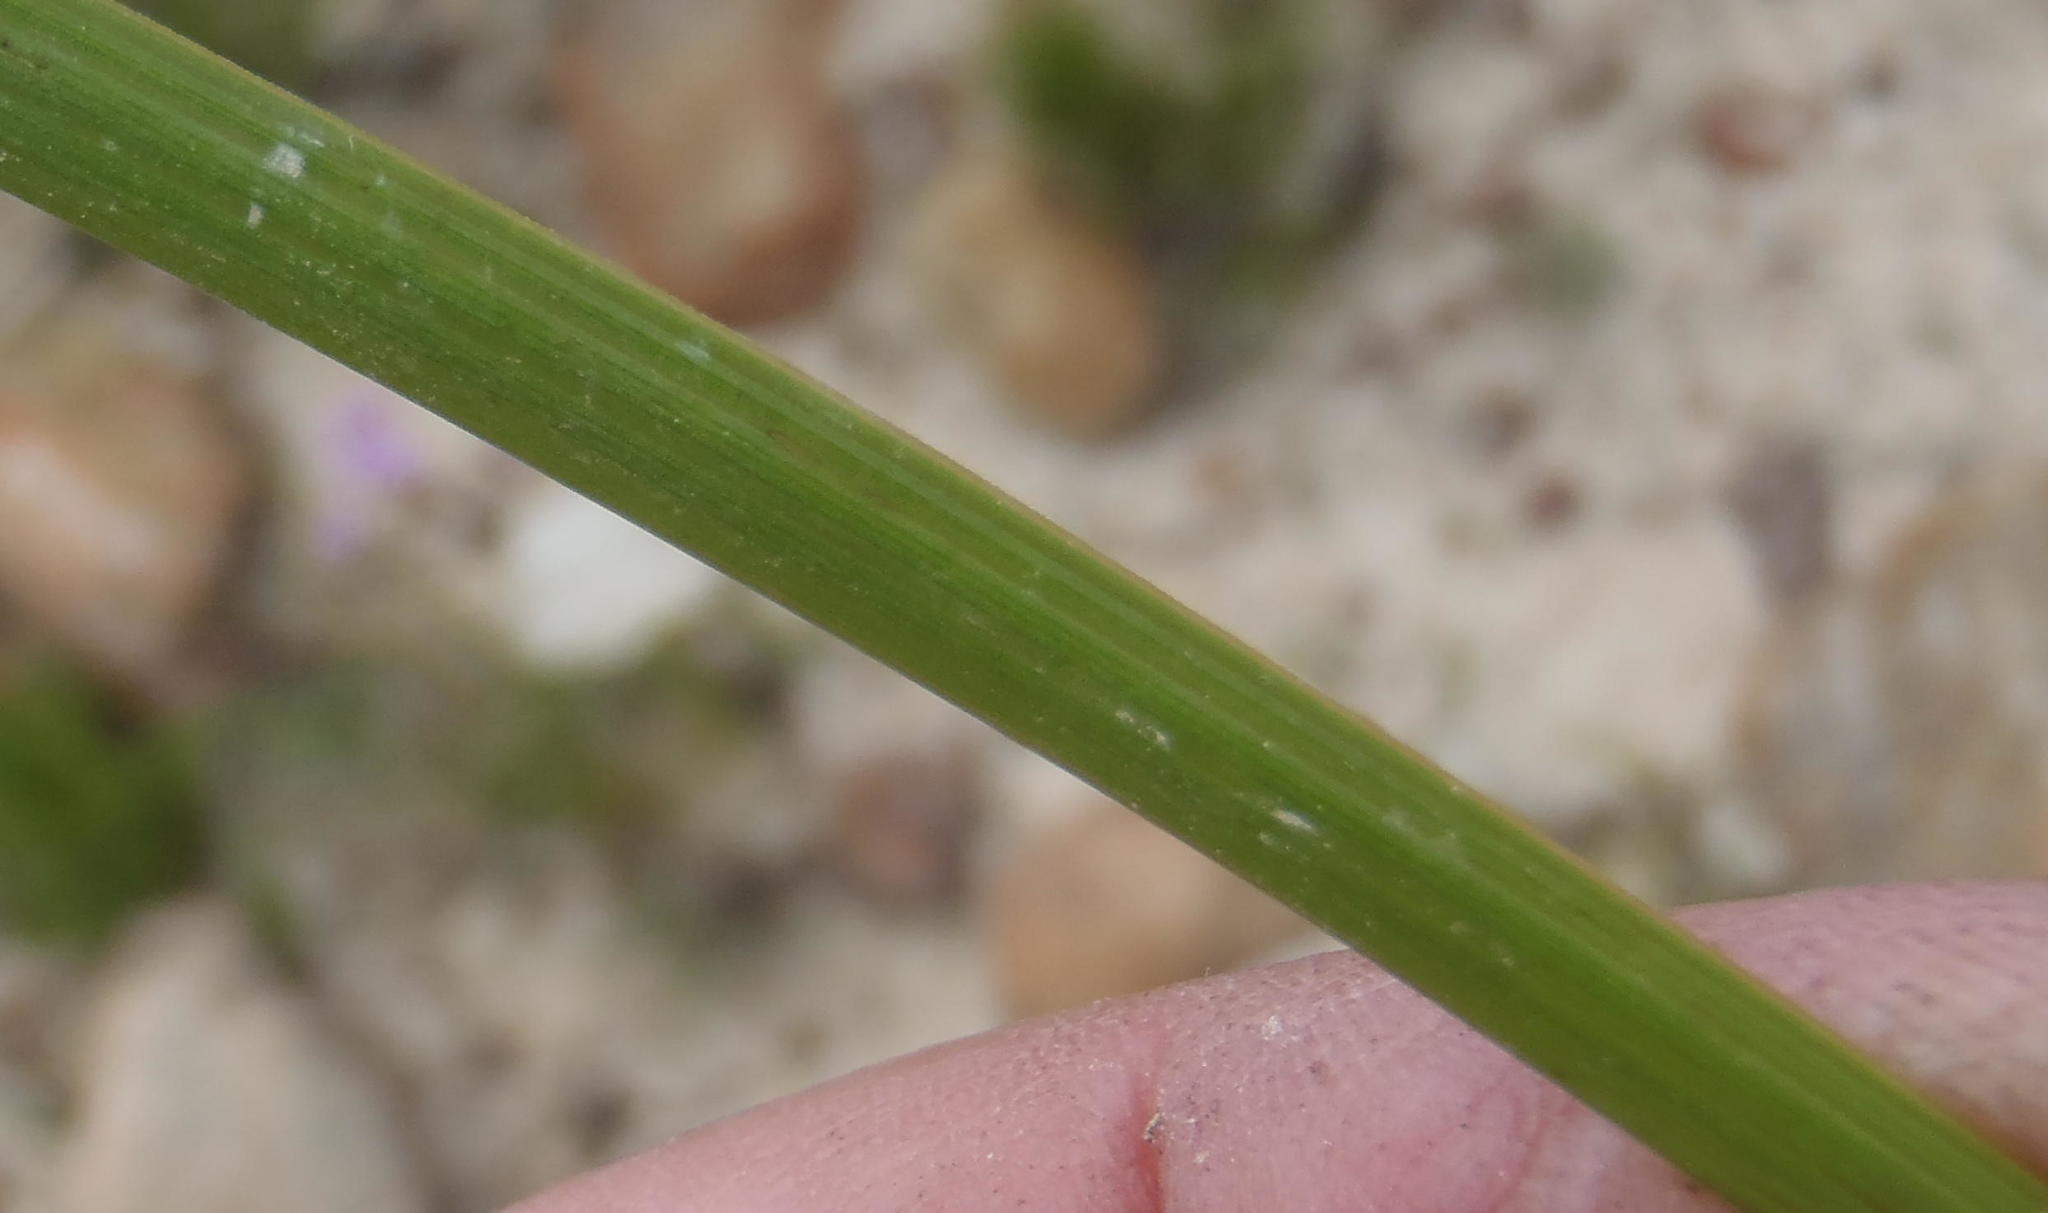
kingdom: Plantae
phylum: Tracheophyta
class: Magnoliopsida
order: Asterales
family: Asteraceae
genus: Corymbium
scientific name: Corymbium glabrum
